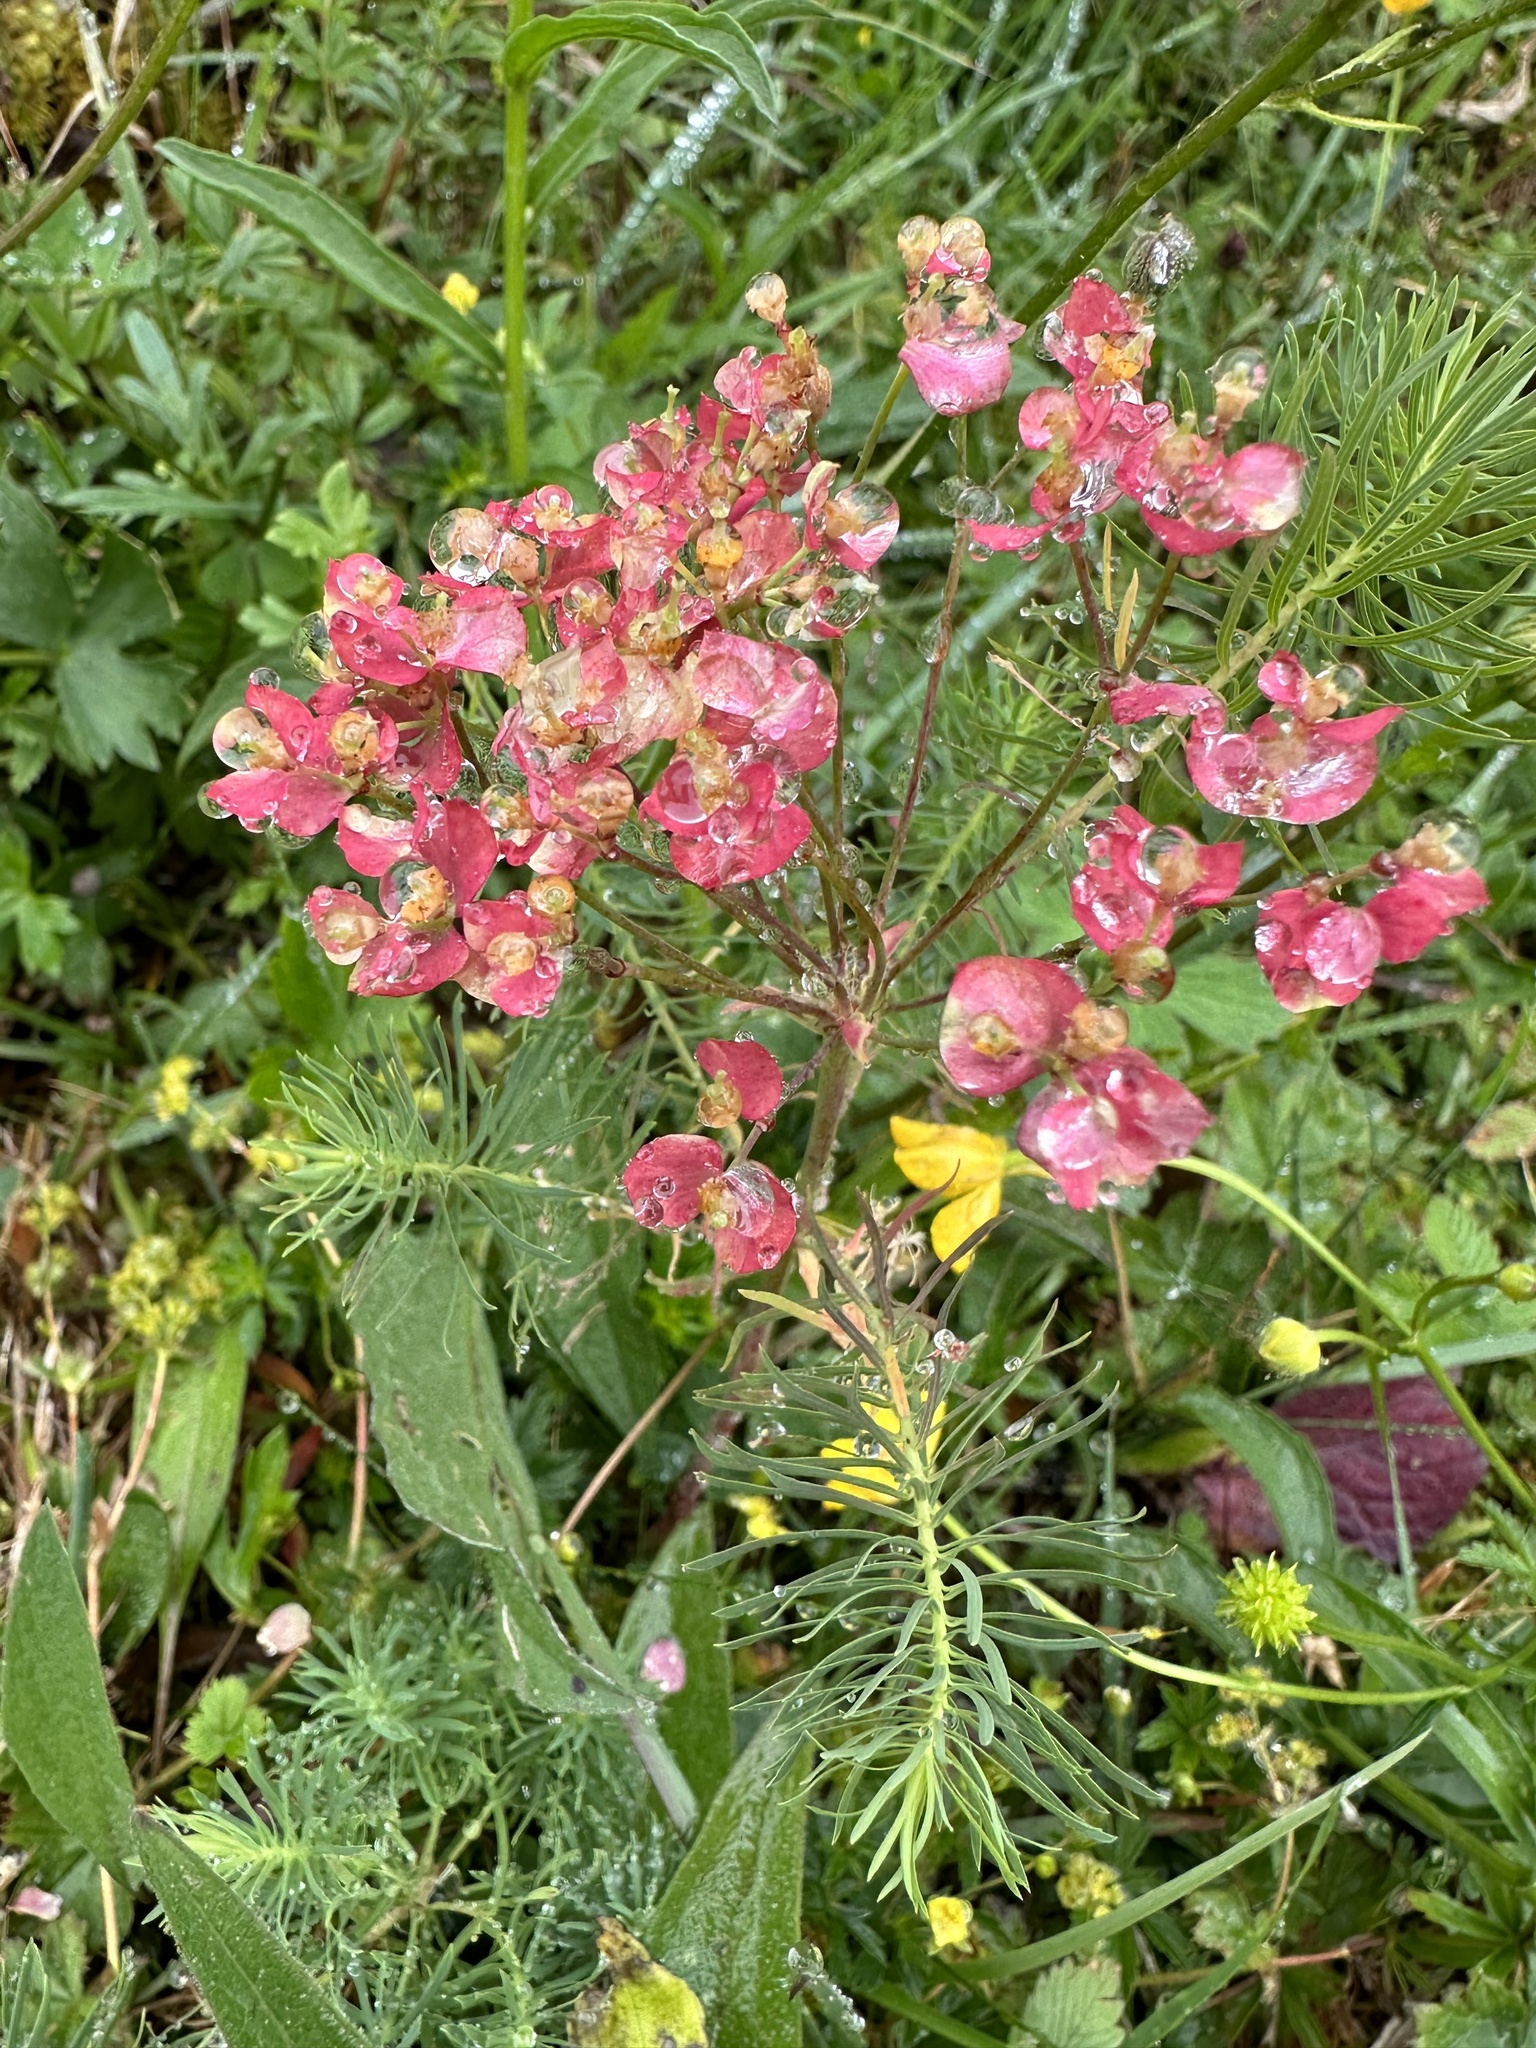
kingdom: Plantae
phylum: Tracheophyta
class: Magnoliopsida
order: Malpighiales
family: Euphorbiaceae
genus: Euphorbia
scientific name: Euphorbia cyparissias
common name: Cypress spurge
